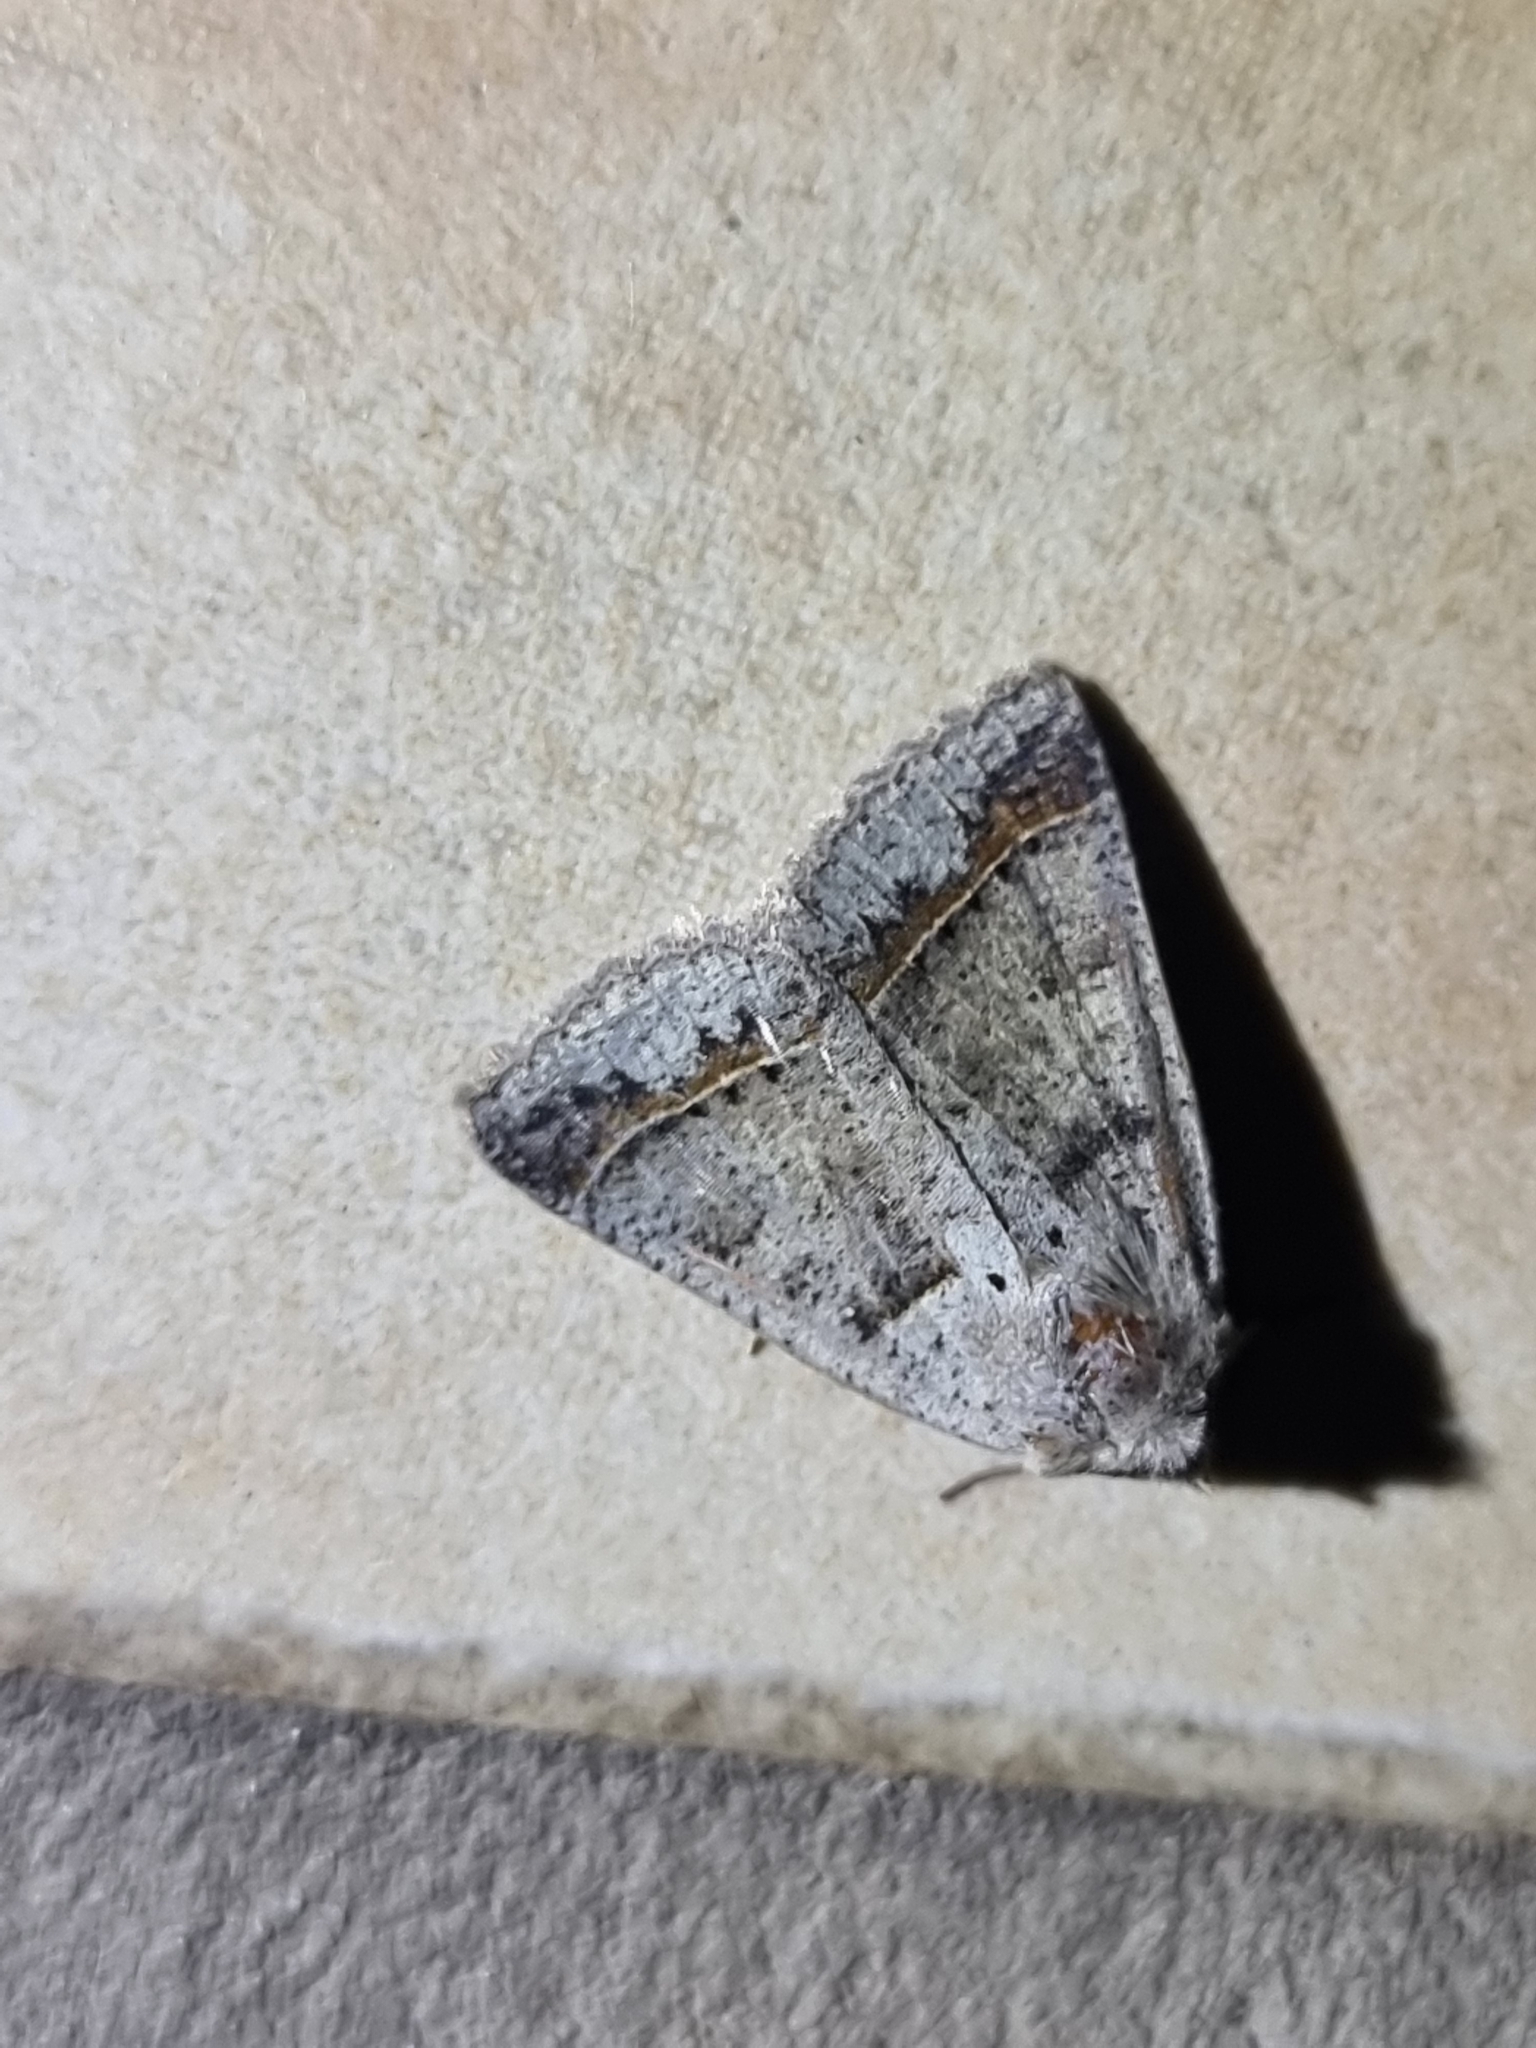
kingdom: Animalia
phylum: Arthropoda
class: Insecta
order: Lepidoptera
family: Erebidae
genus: Pantydia
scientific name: Pantydia sparsa
